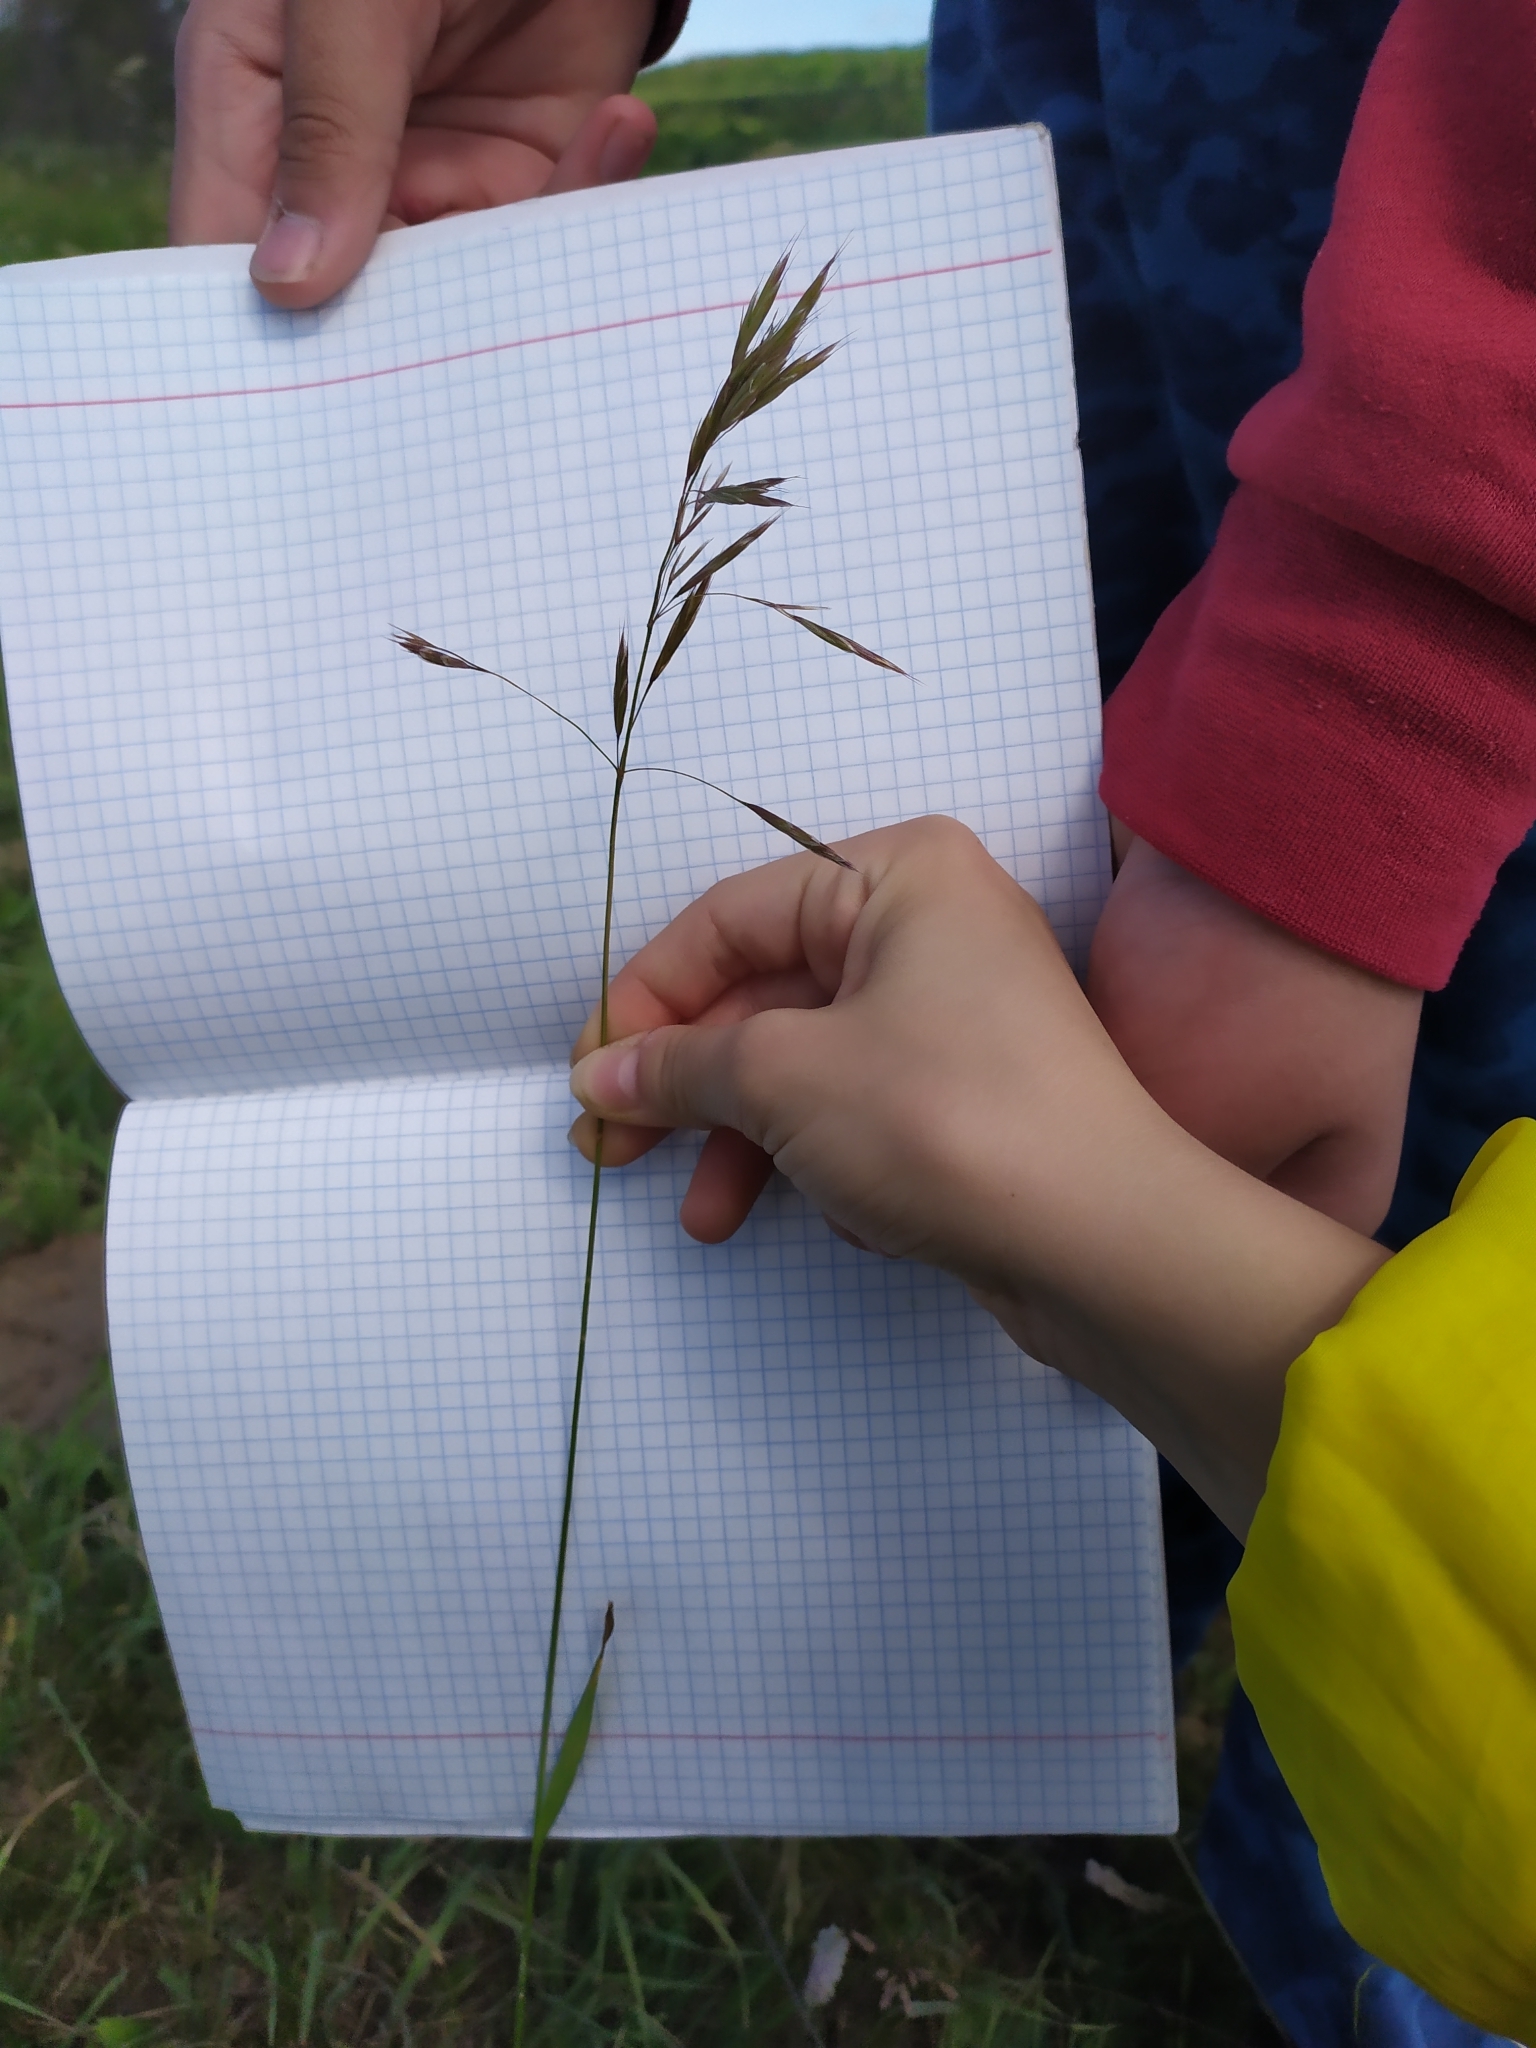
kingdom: Plantae
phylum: Tracheophyta
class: Liliopsida
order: Poales
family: Poaceae
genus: Bromus
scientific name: Bromus inermis
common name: Smooth brome
